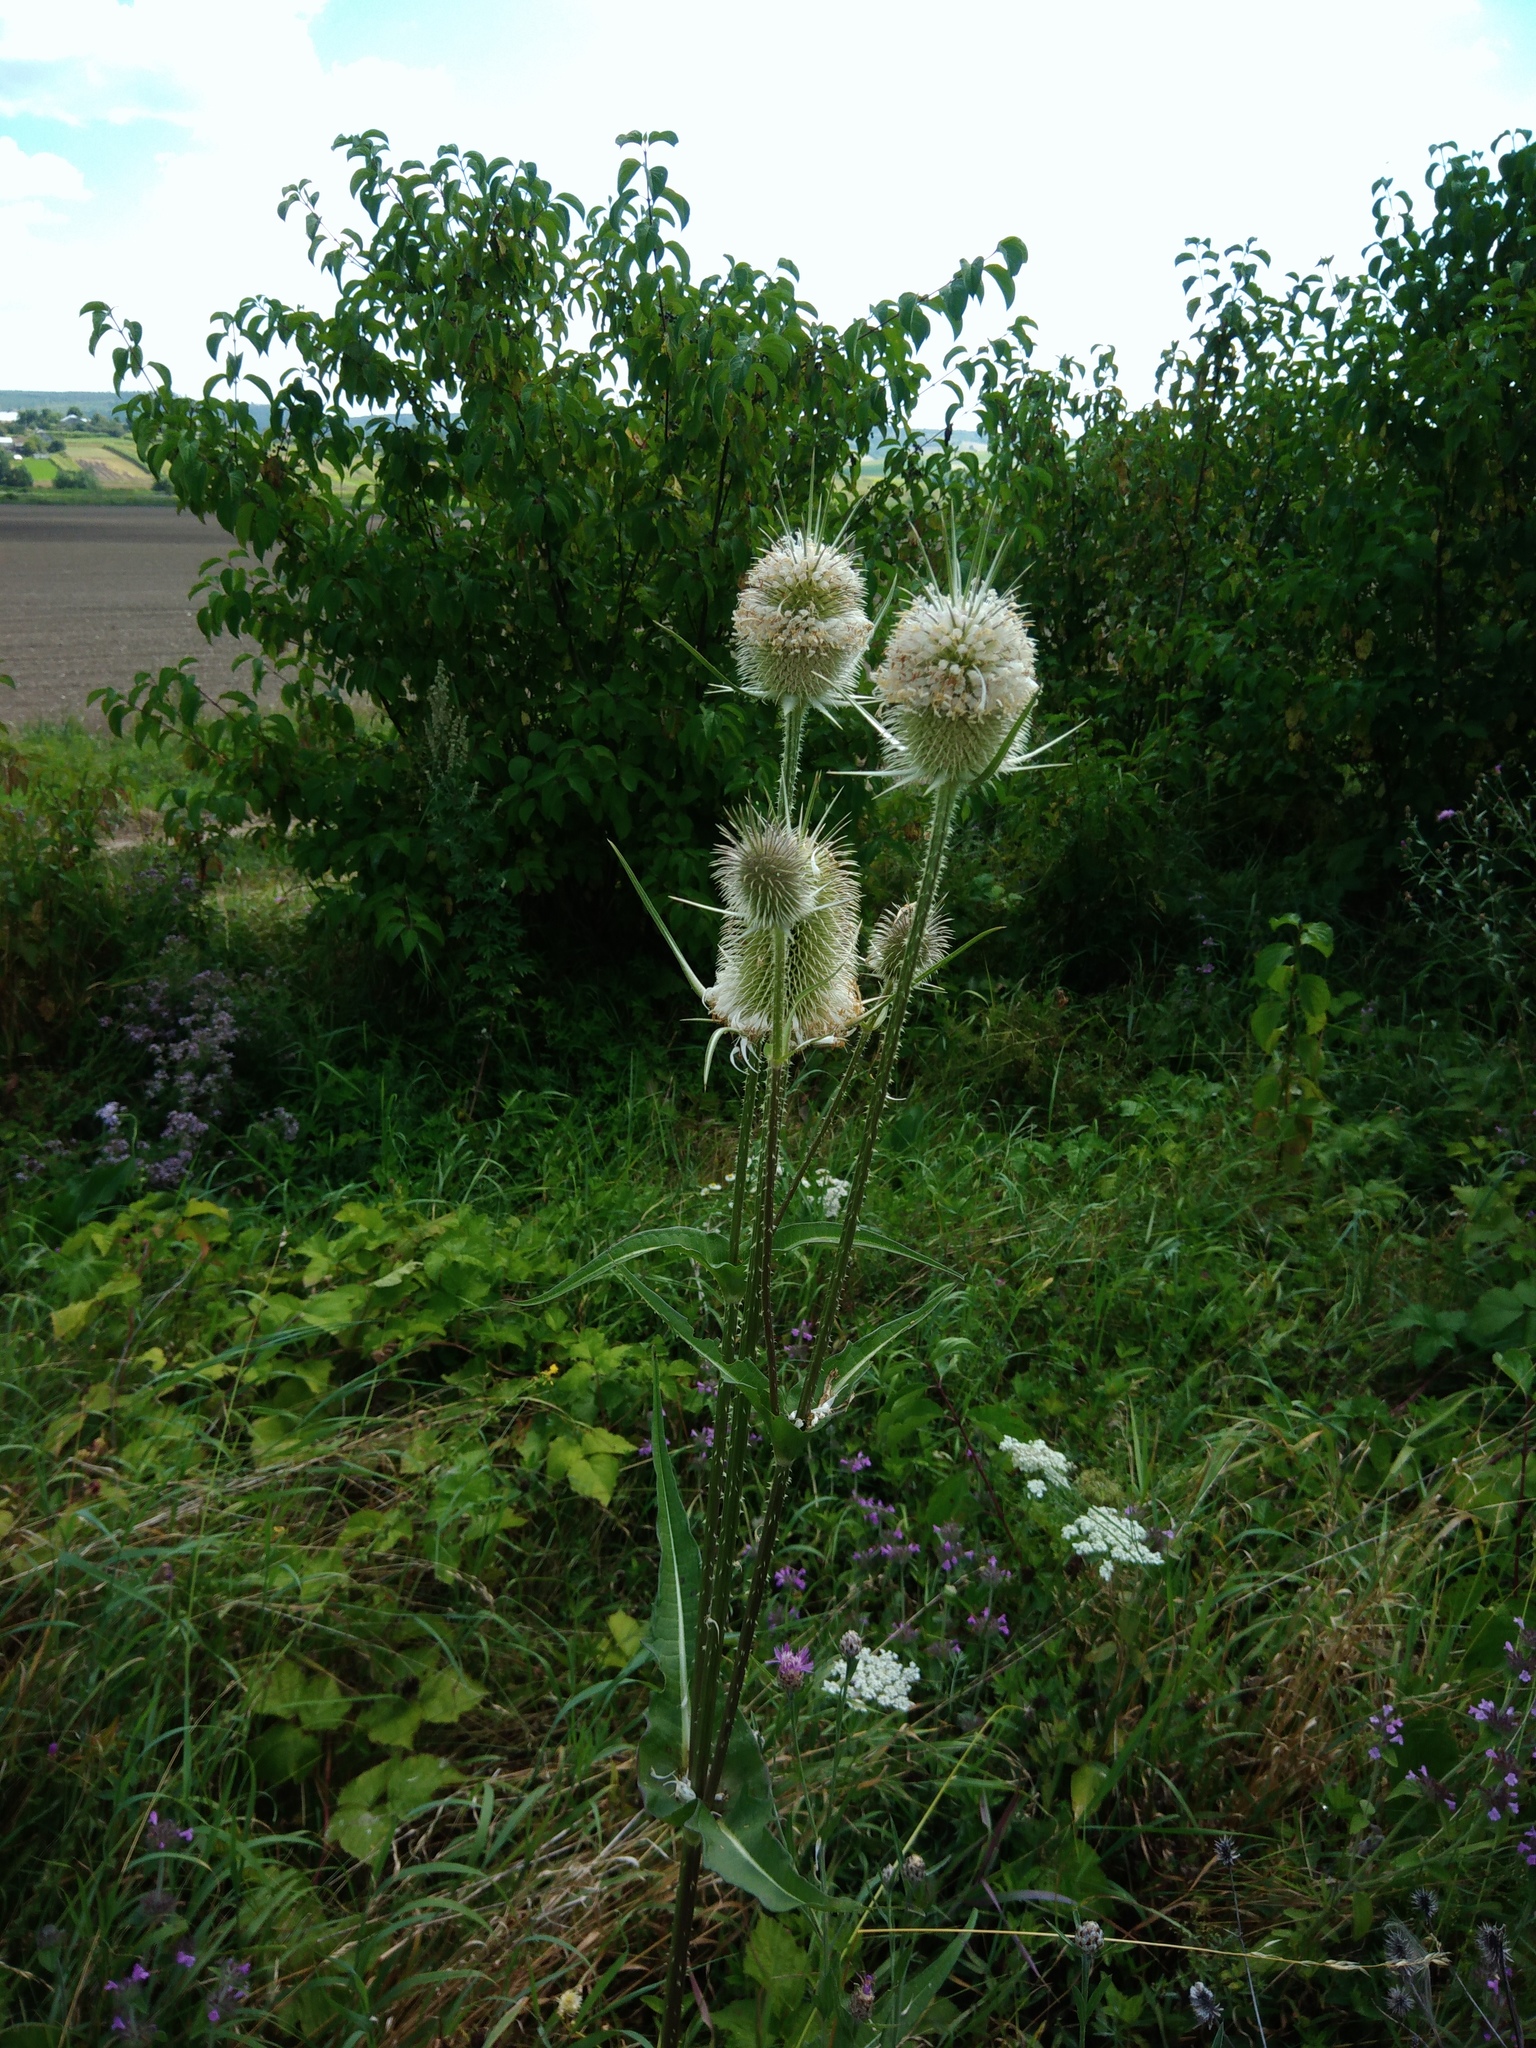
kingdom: Plantae
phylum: Tracheophyta
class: Magnoliopsida
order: Dipsacales
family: Caprifoliaceae
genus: Dipsacus
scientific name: Dipsacus laciniatus
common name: Cut-leaved teasel
